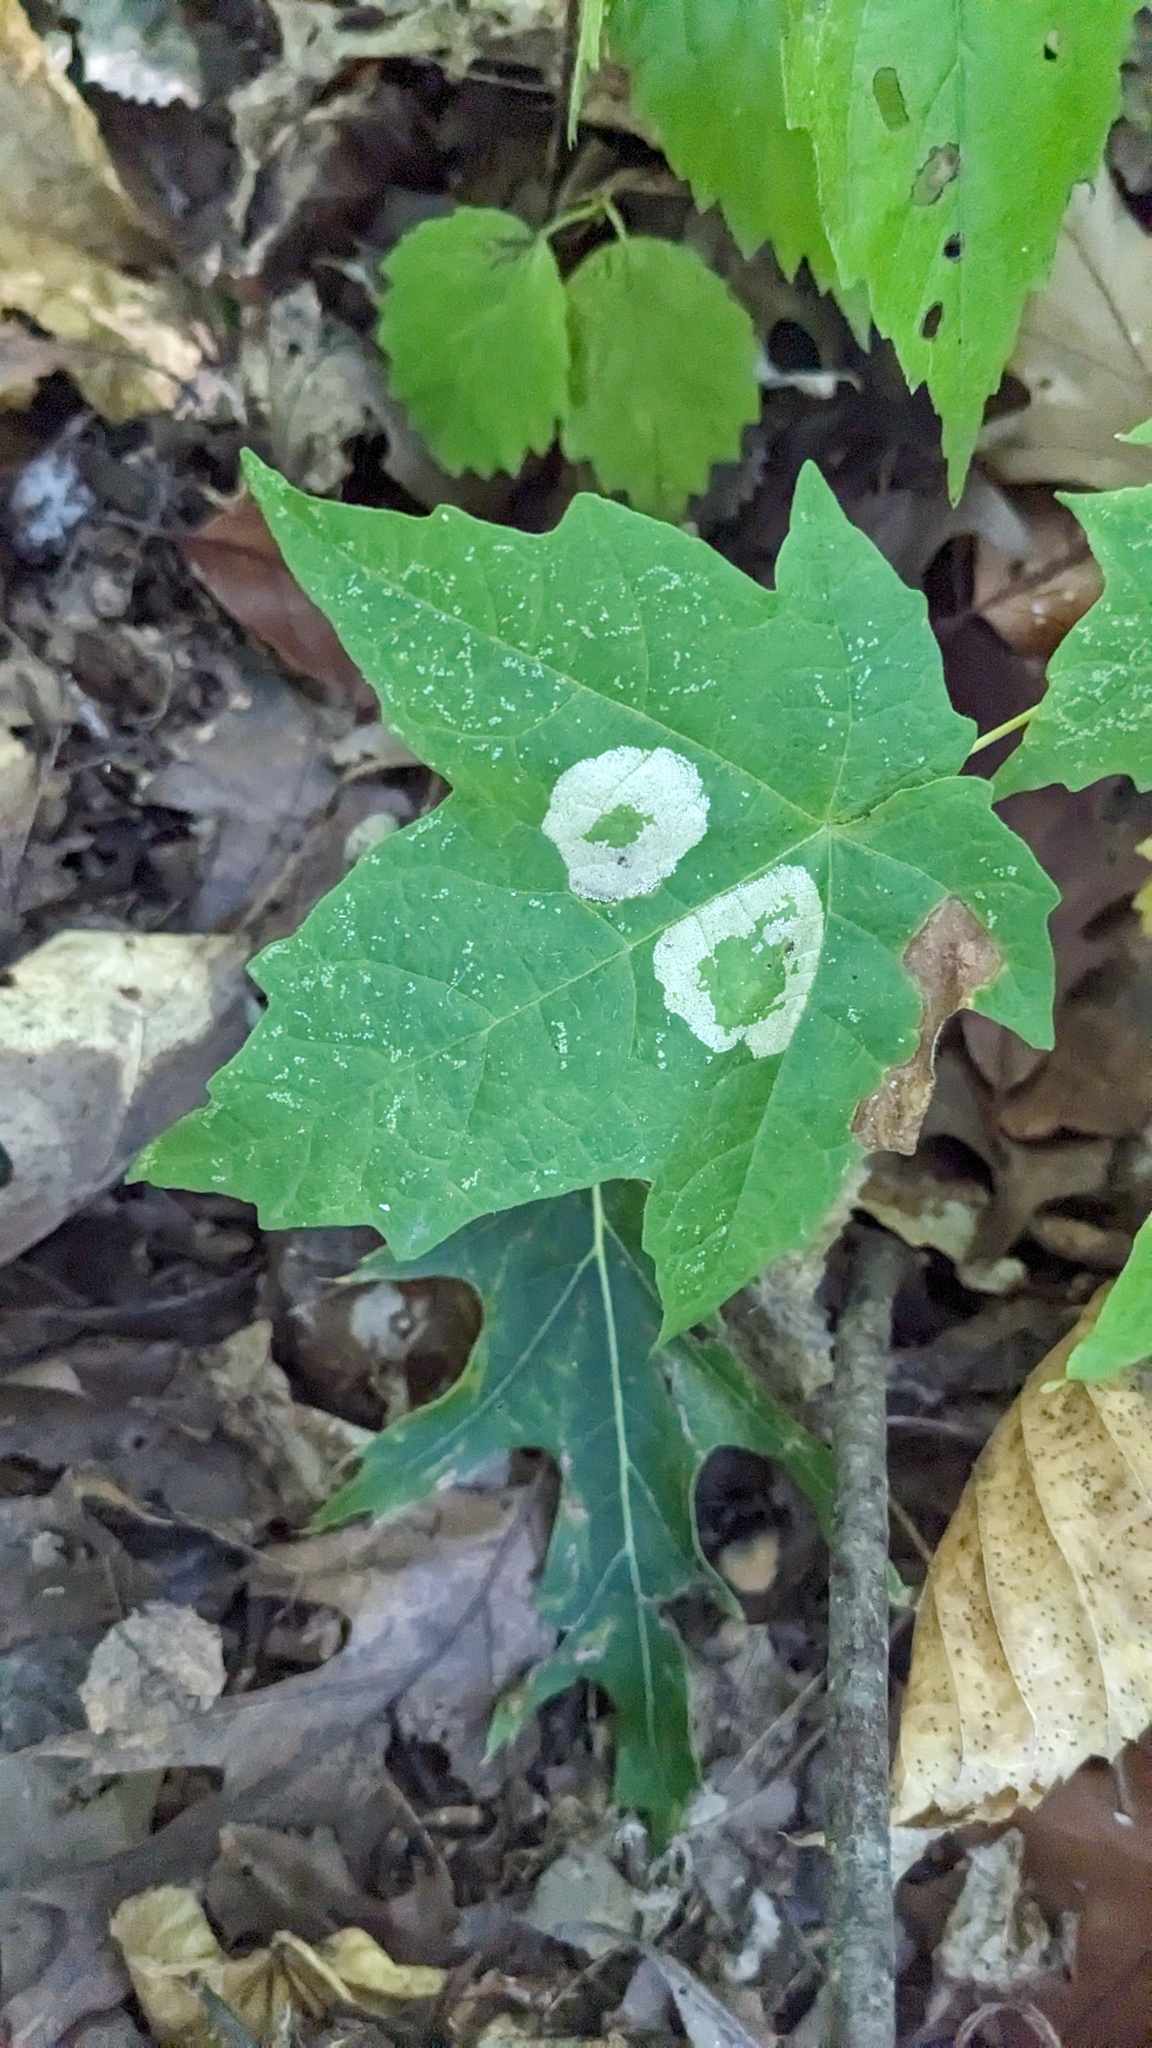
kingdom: Plantae
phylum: Tracheophyta
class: Magnoliopsida
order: Sapindales
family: Sapindaceae
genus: Acer
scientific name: Acer saccharum
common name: Sugar maple
